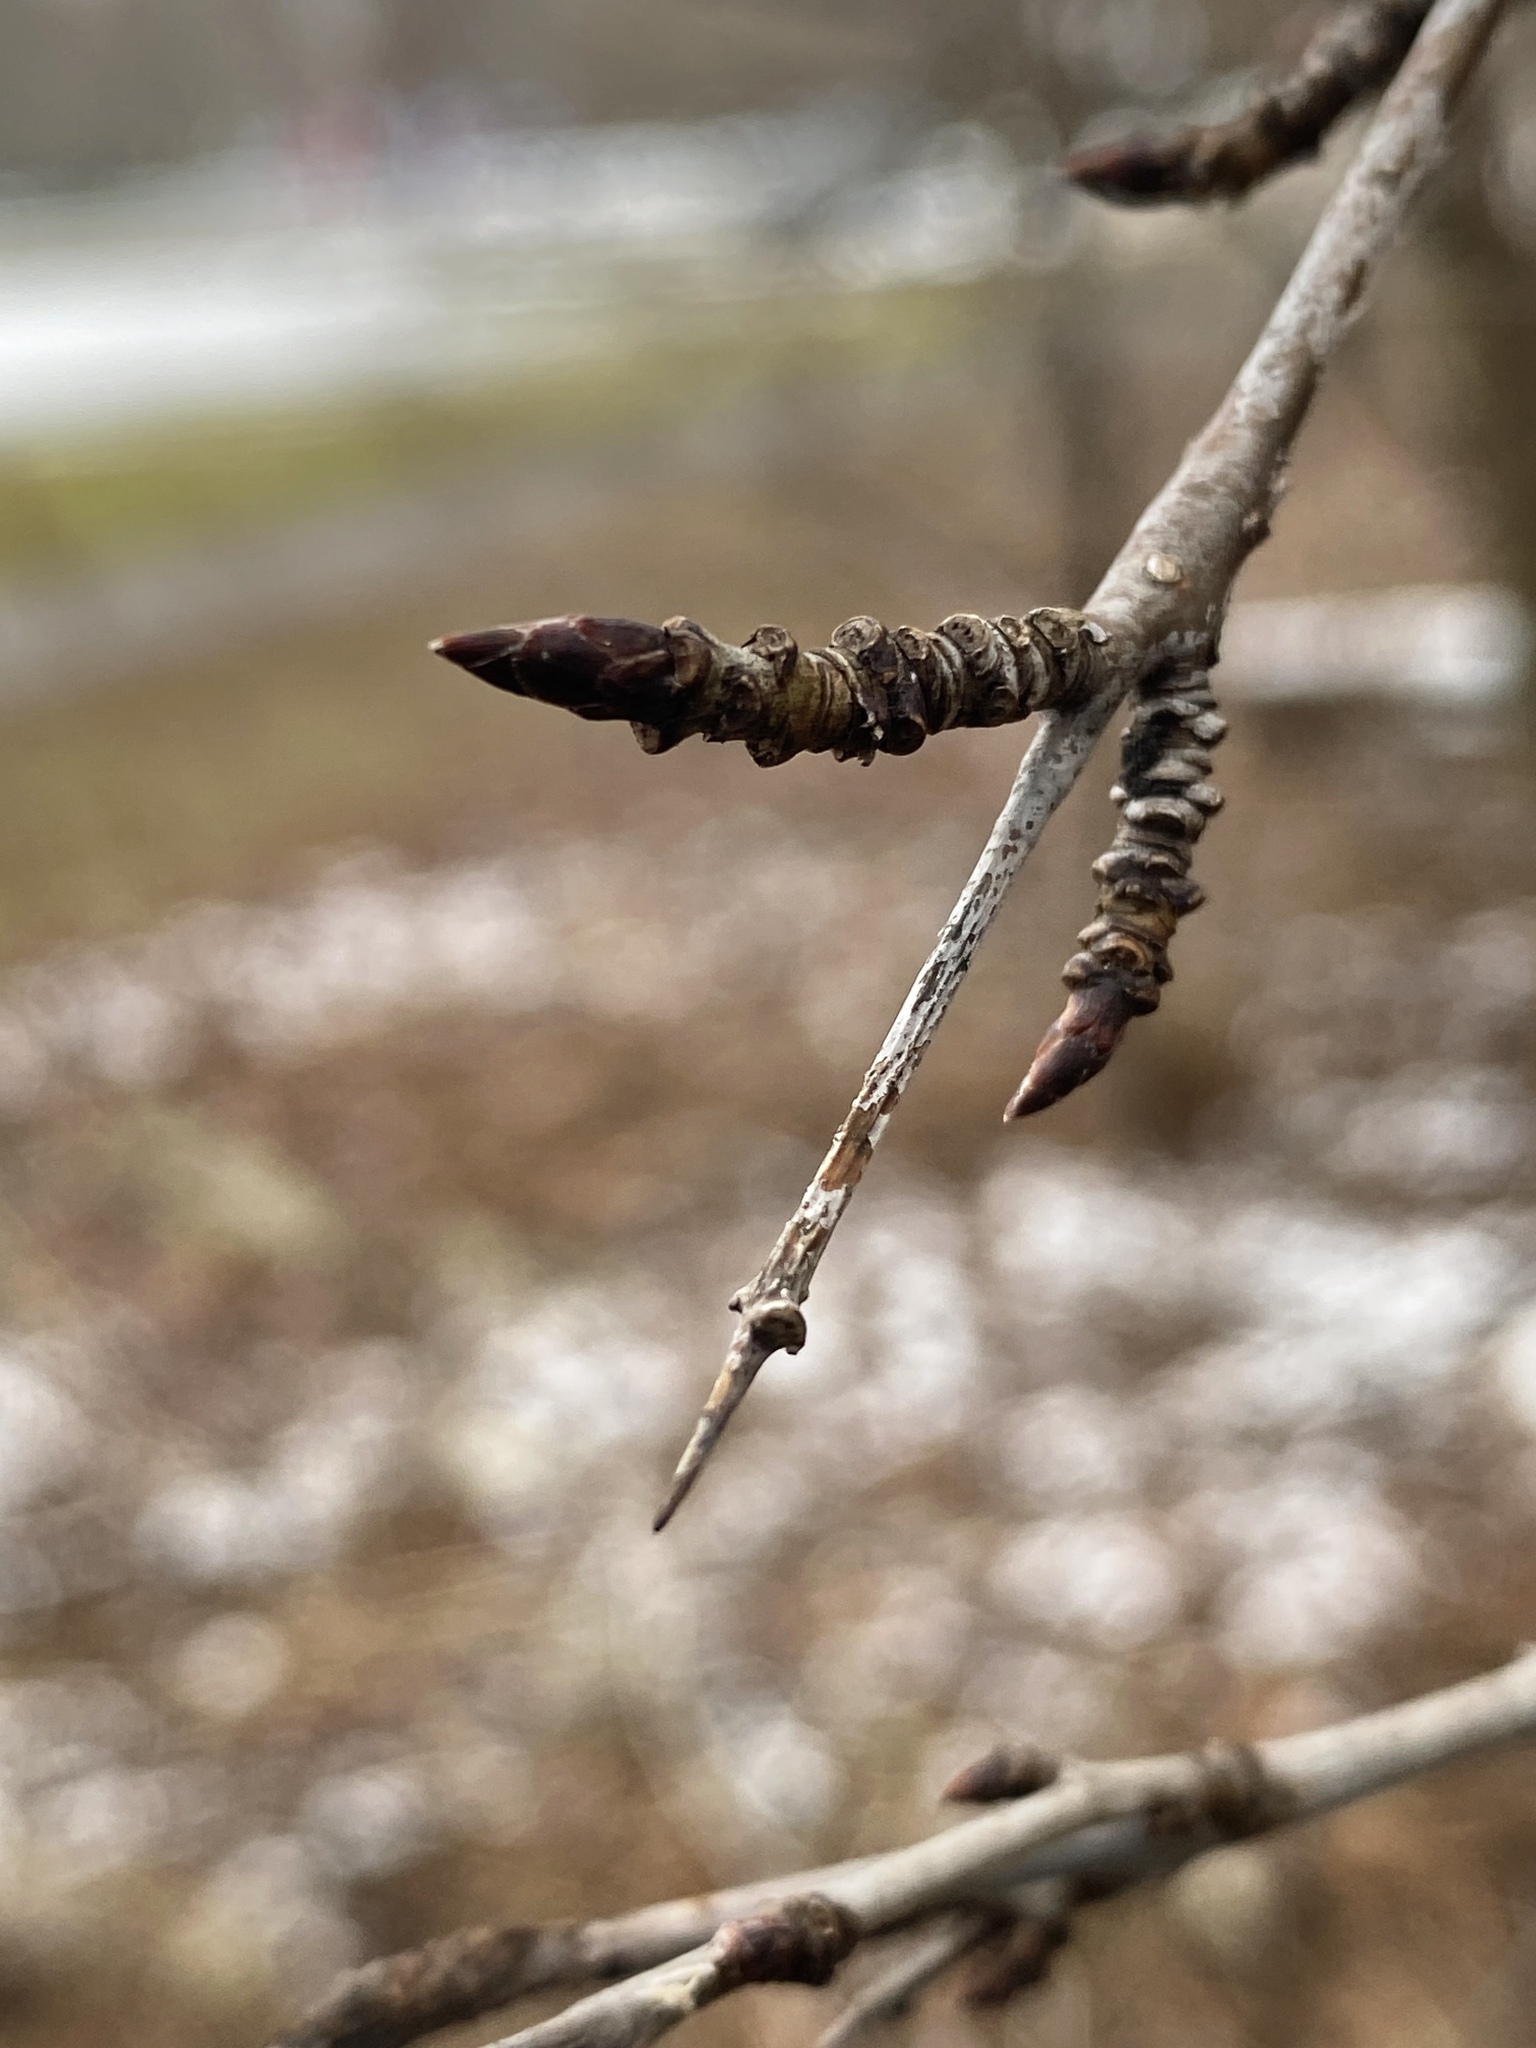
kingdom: Plantae
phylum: Tracheophyta
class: Magnoliopsida
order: Rosales
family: Rhamnaceae
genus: Rhamnus
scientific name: Rhamnus cathartica
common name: Common buckthorn
